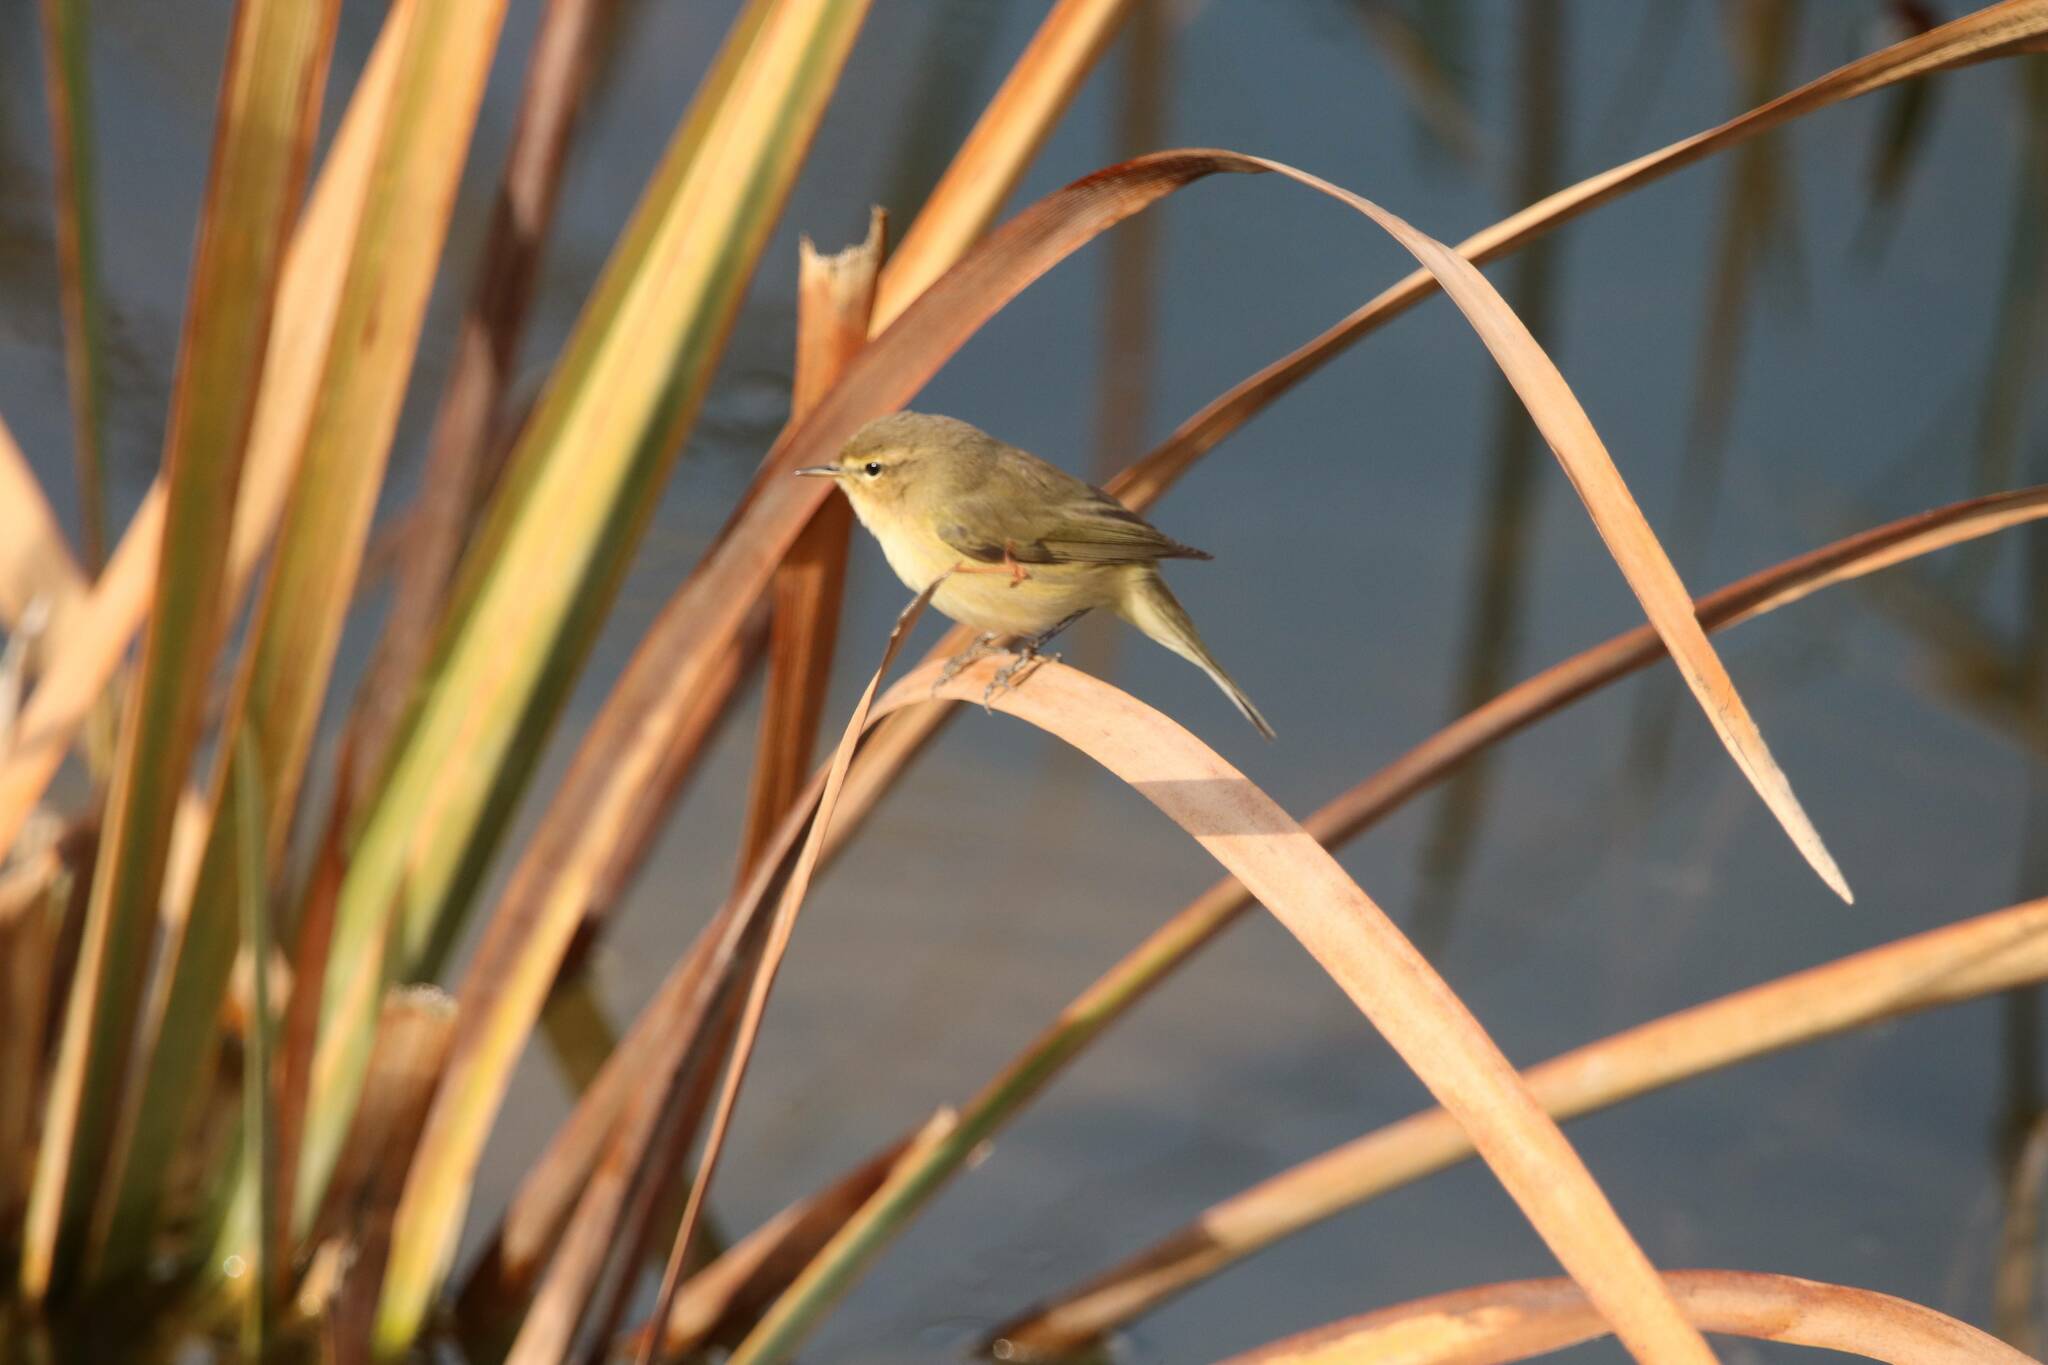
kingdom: Animalia
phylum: Chordata
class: Aves
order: Passeriformes
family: Phylloscopidae
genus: Phylloscopus
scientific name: Phylloscopus collybita
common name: Common chiffchaff
